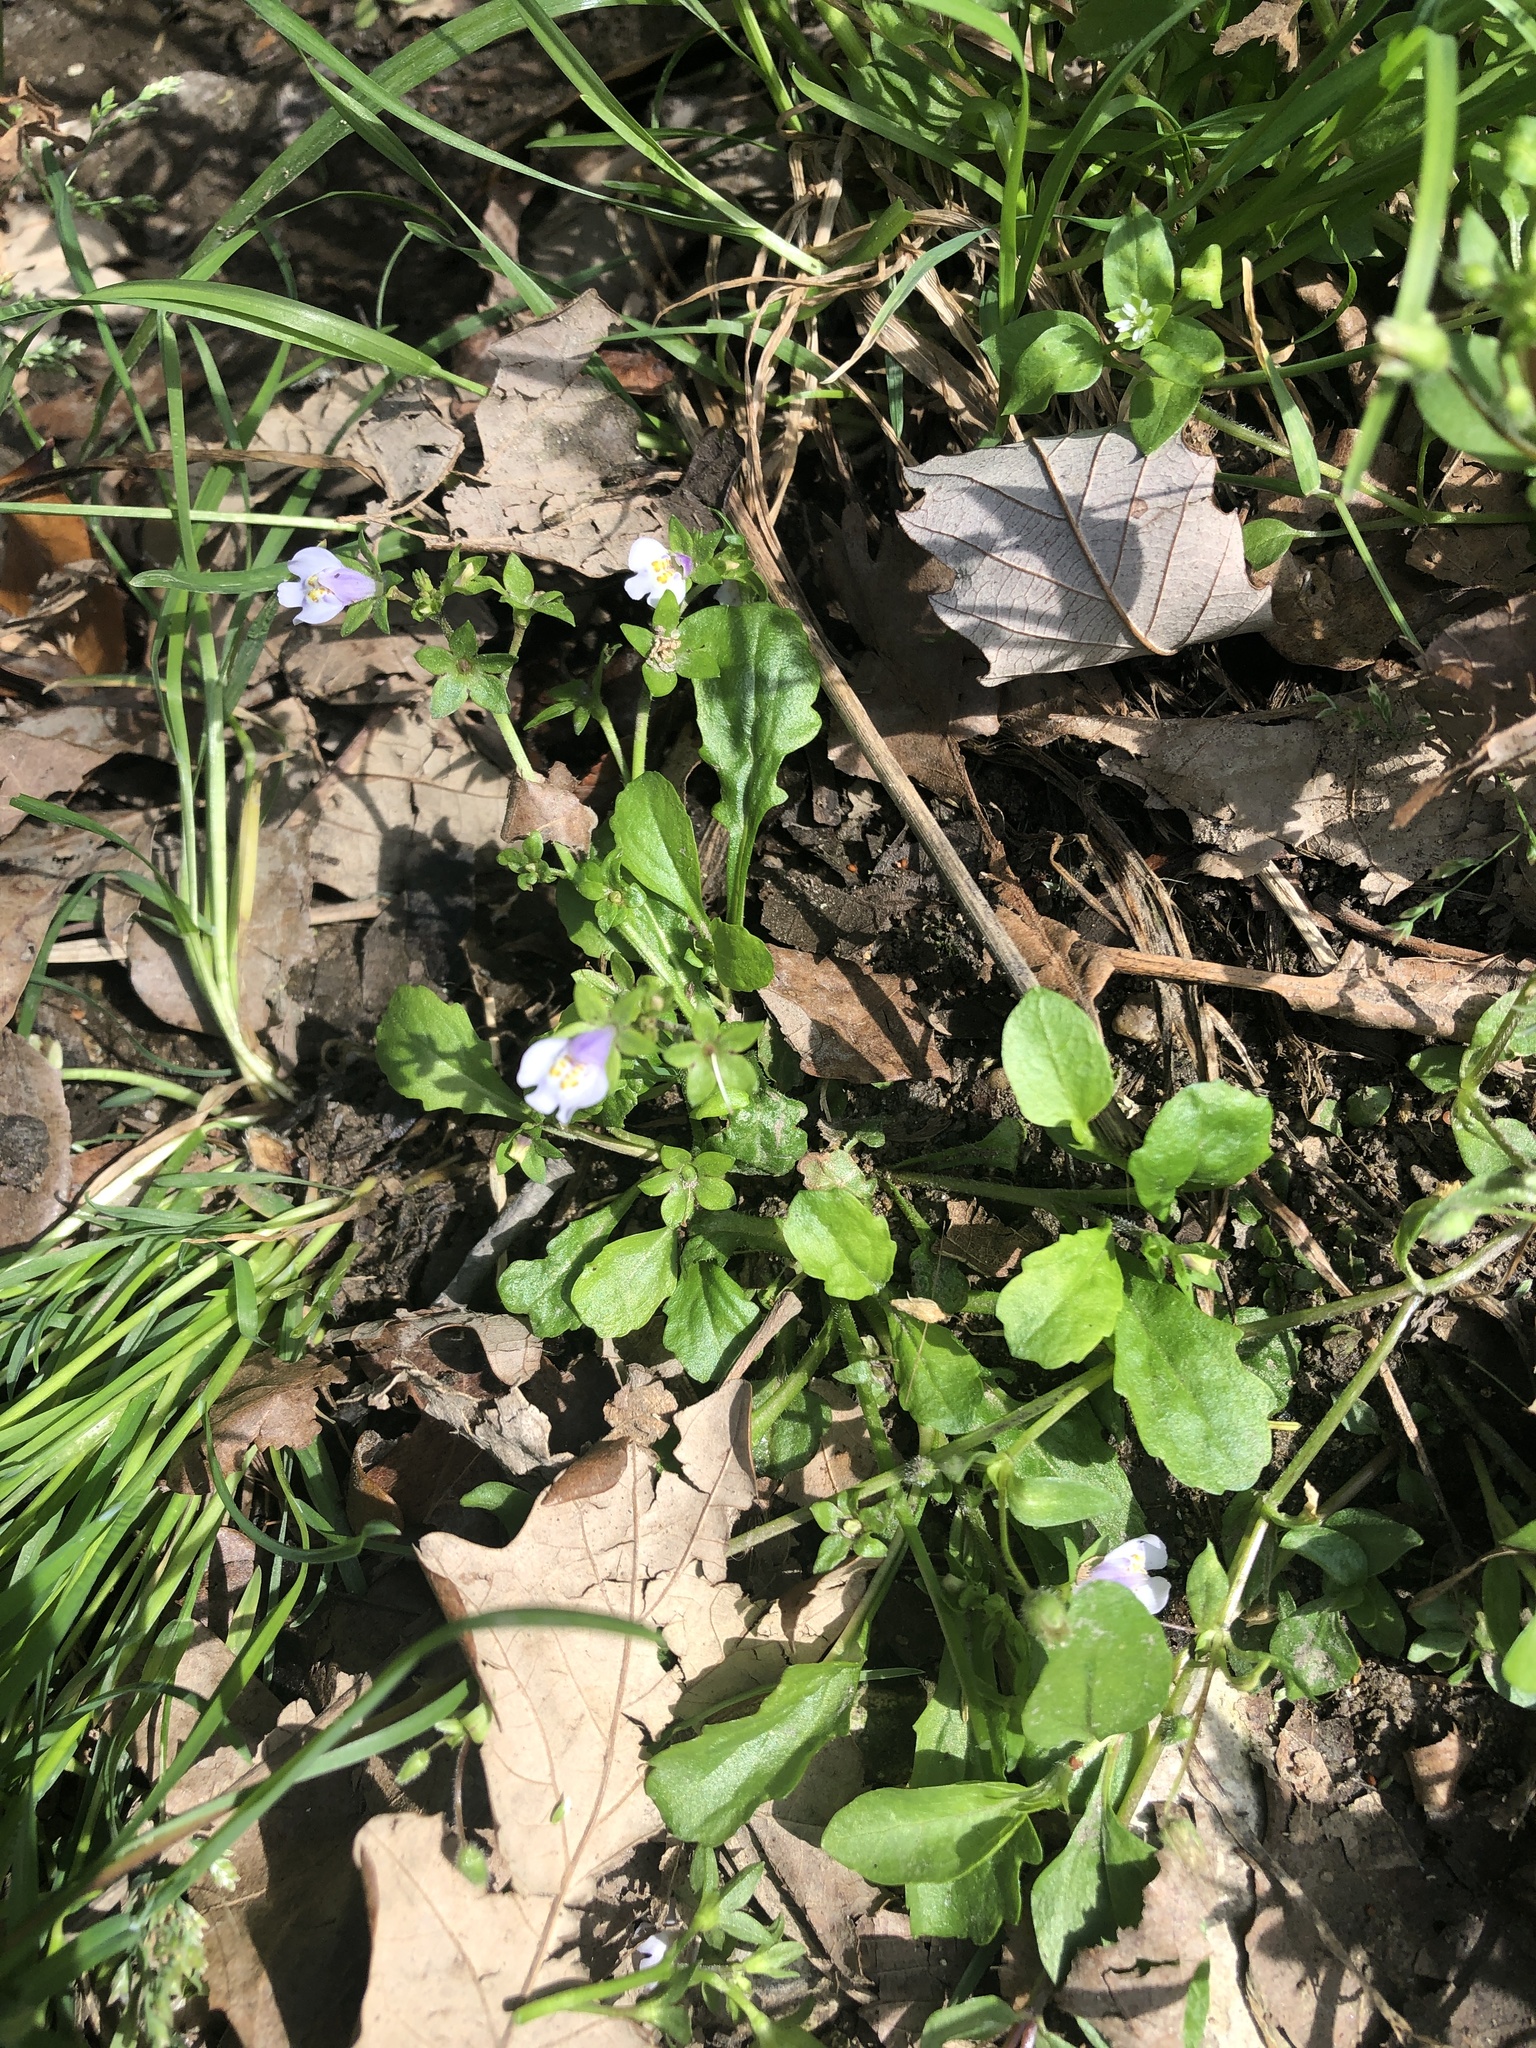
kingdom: Plantae
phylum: Tracheophyta
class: Magnoliopsida
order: Lamiales
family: Mazaceae
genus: Mazus
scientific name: Mazus pumilus
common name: Japanese mazus
